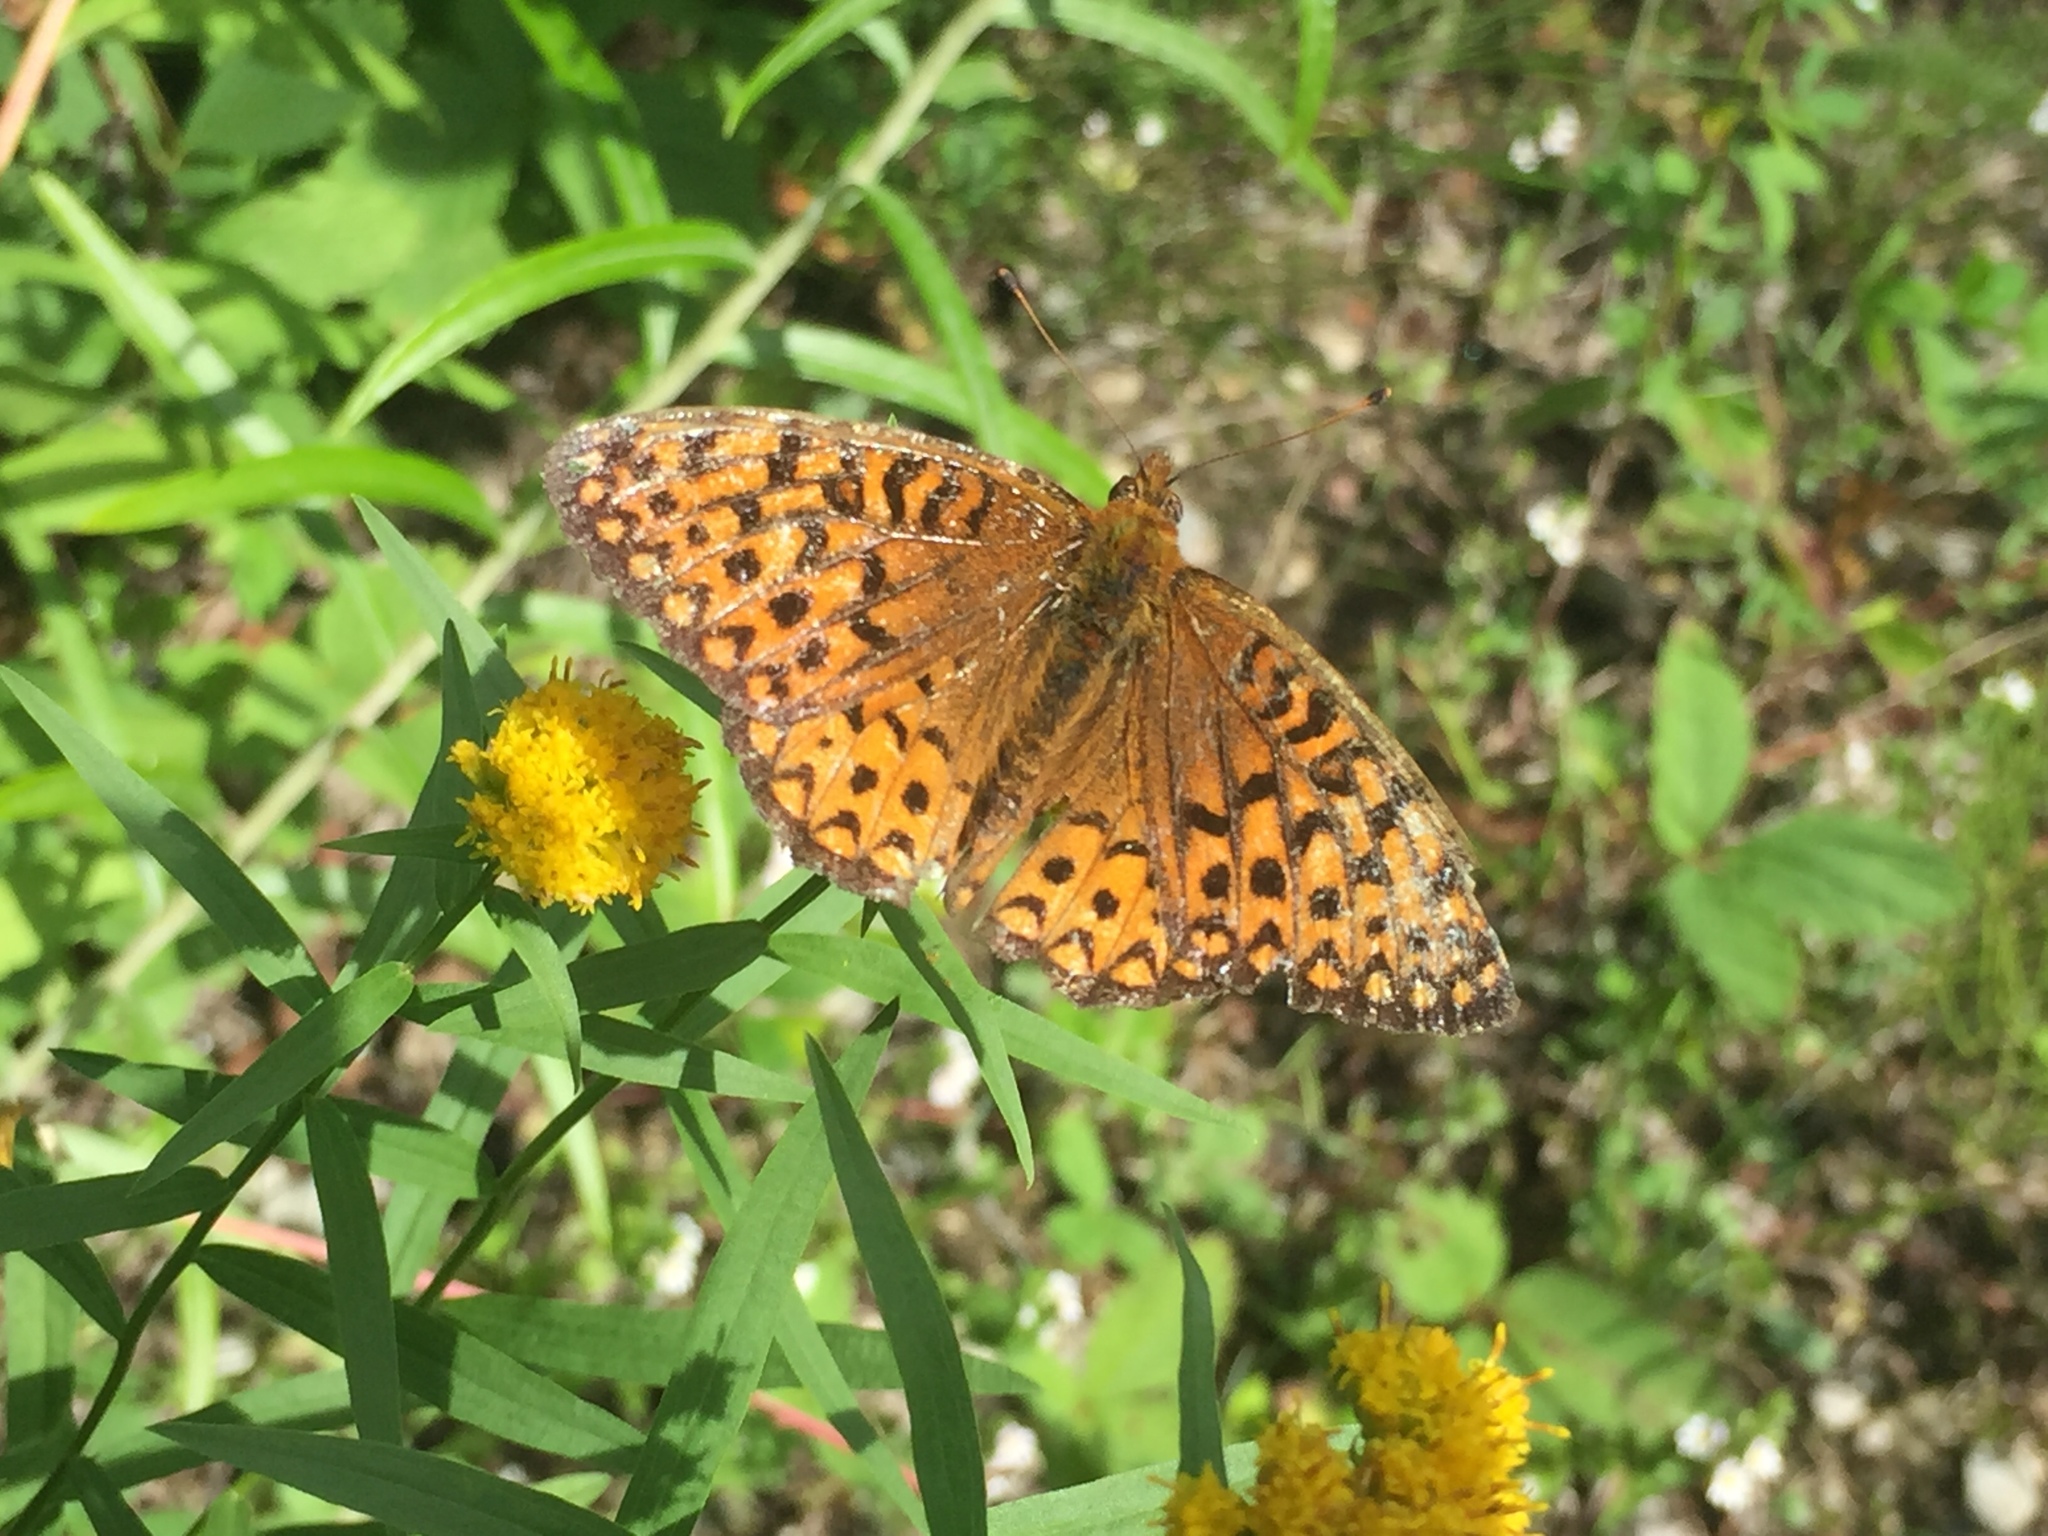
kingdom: Animalia
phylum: Arthropoda
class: Insecta
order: Lepidoptera
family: Nymphalidae
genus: Speyeria
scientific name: Speyeria atlantis
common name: Atlantis fritillary
